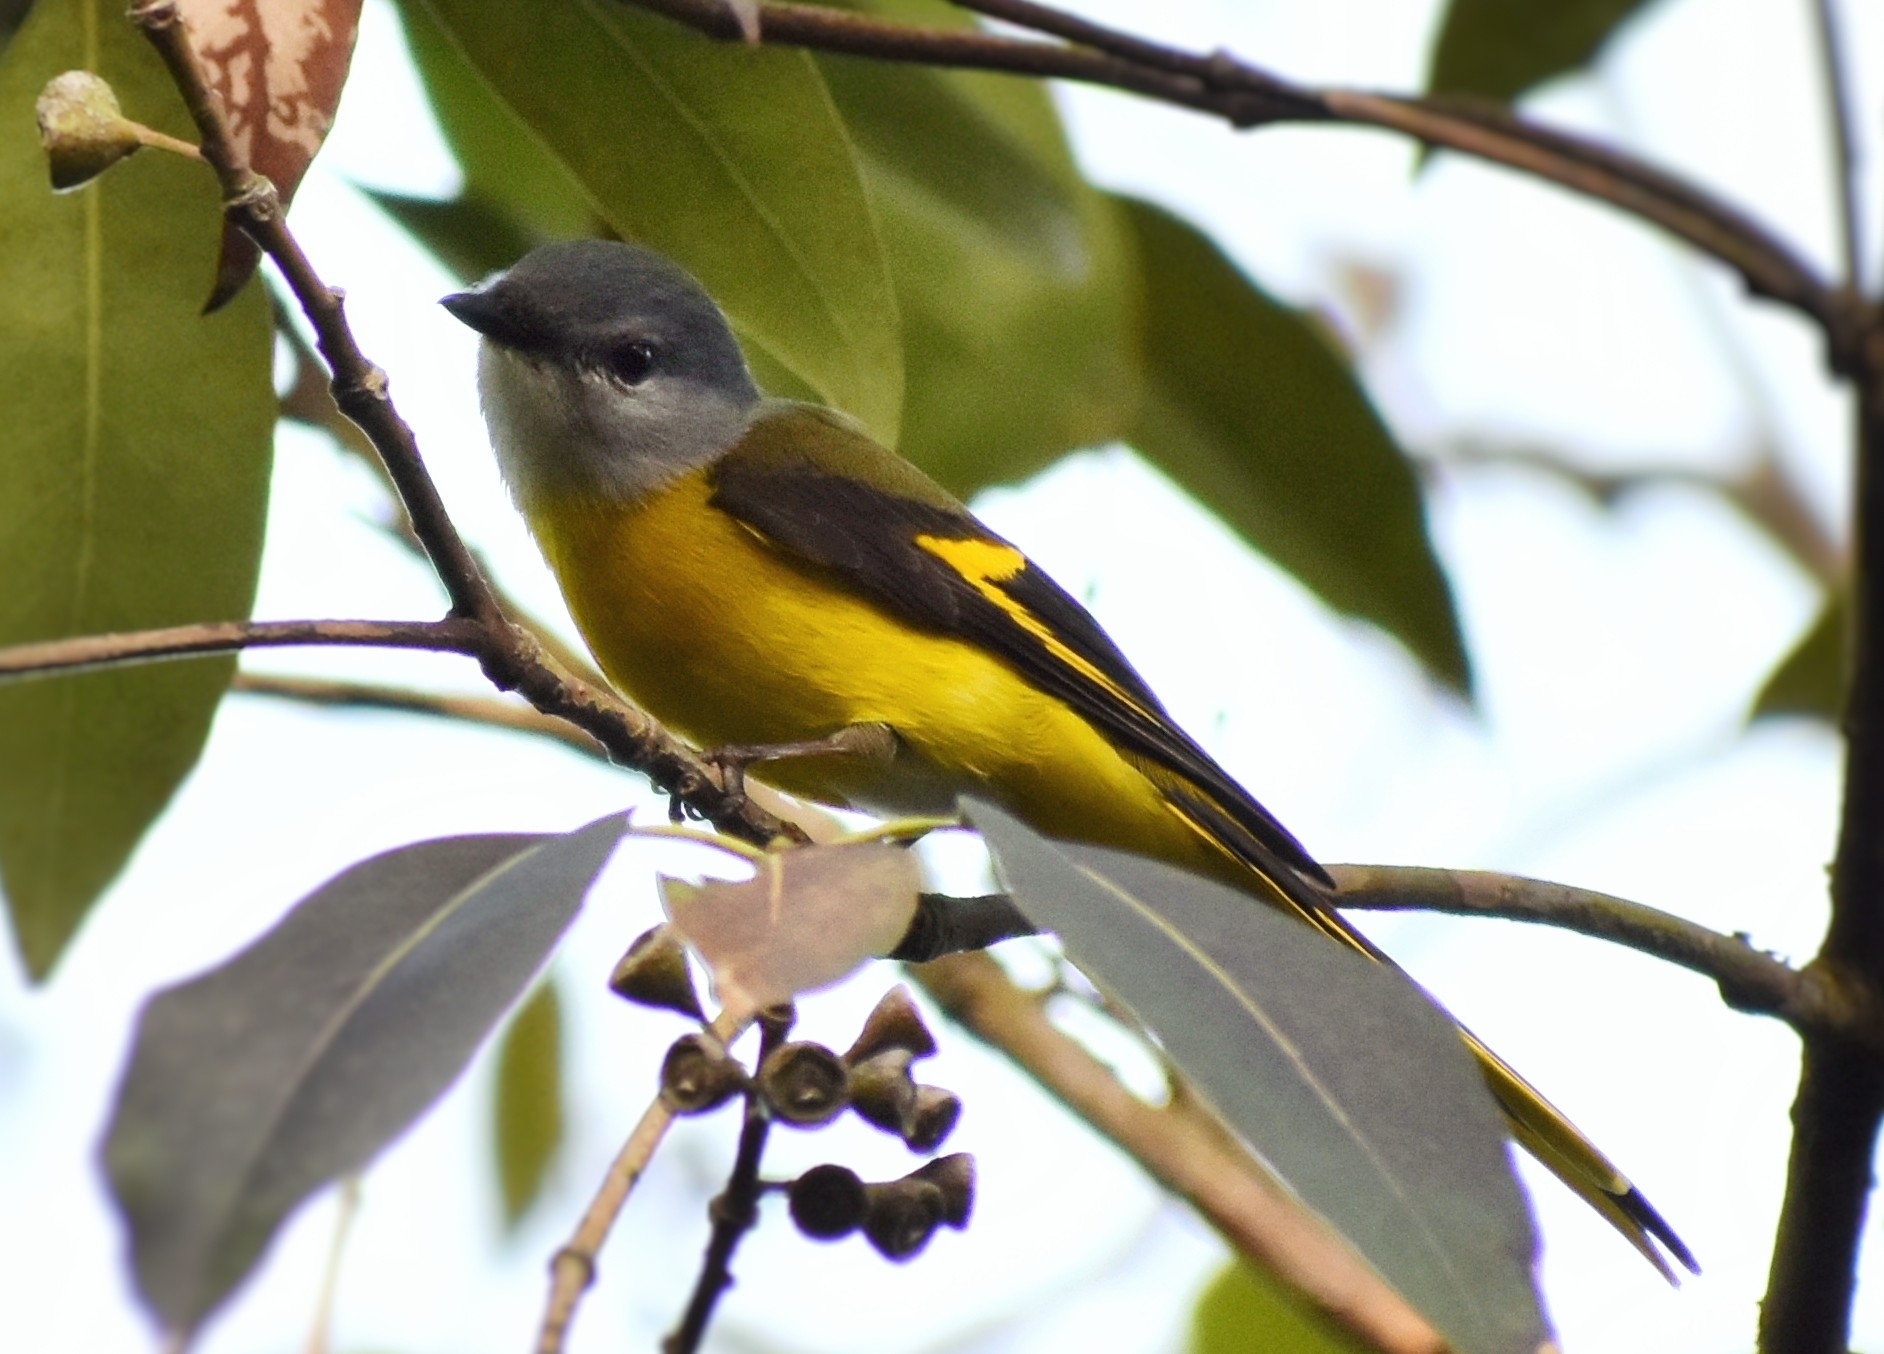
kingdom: Animalia
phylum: Chordata
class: Aves
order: Passeriformes
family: Campephagidae
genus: Pericrocotus
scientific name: Pericrocotus solaris
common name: Grey-chinned minivet
